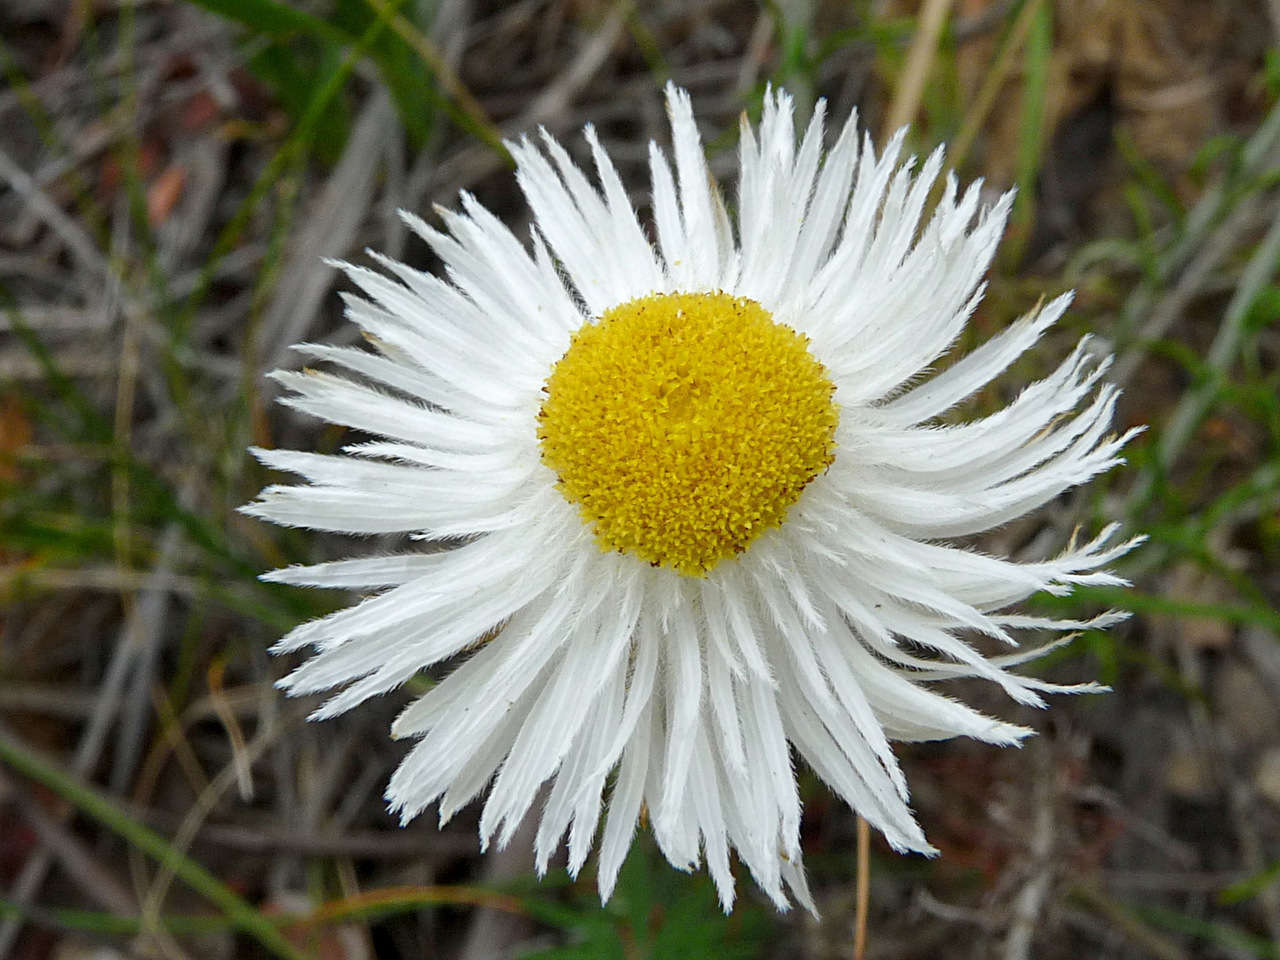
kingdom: Plantae
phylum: Tracheophyta
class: Magnoliopsida
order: Asterales
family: Asteraceae
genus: Chrysocephalum
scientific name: Chrysocephalum baxteri
